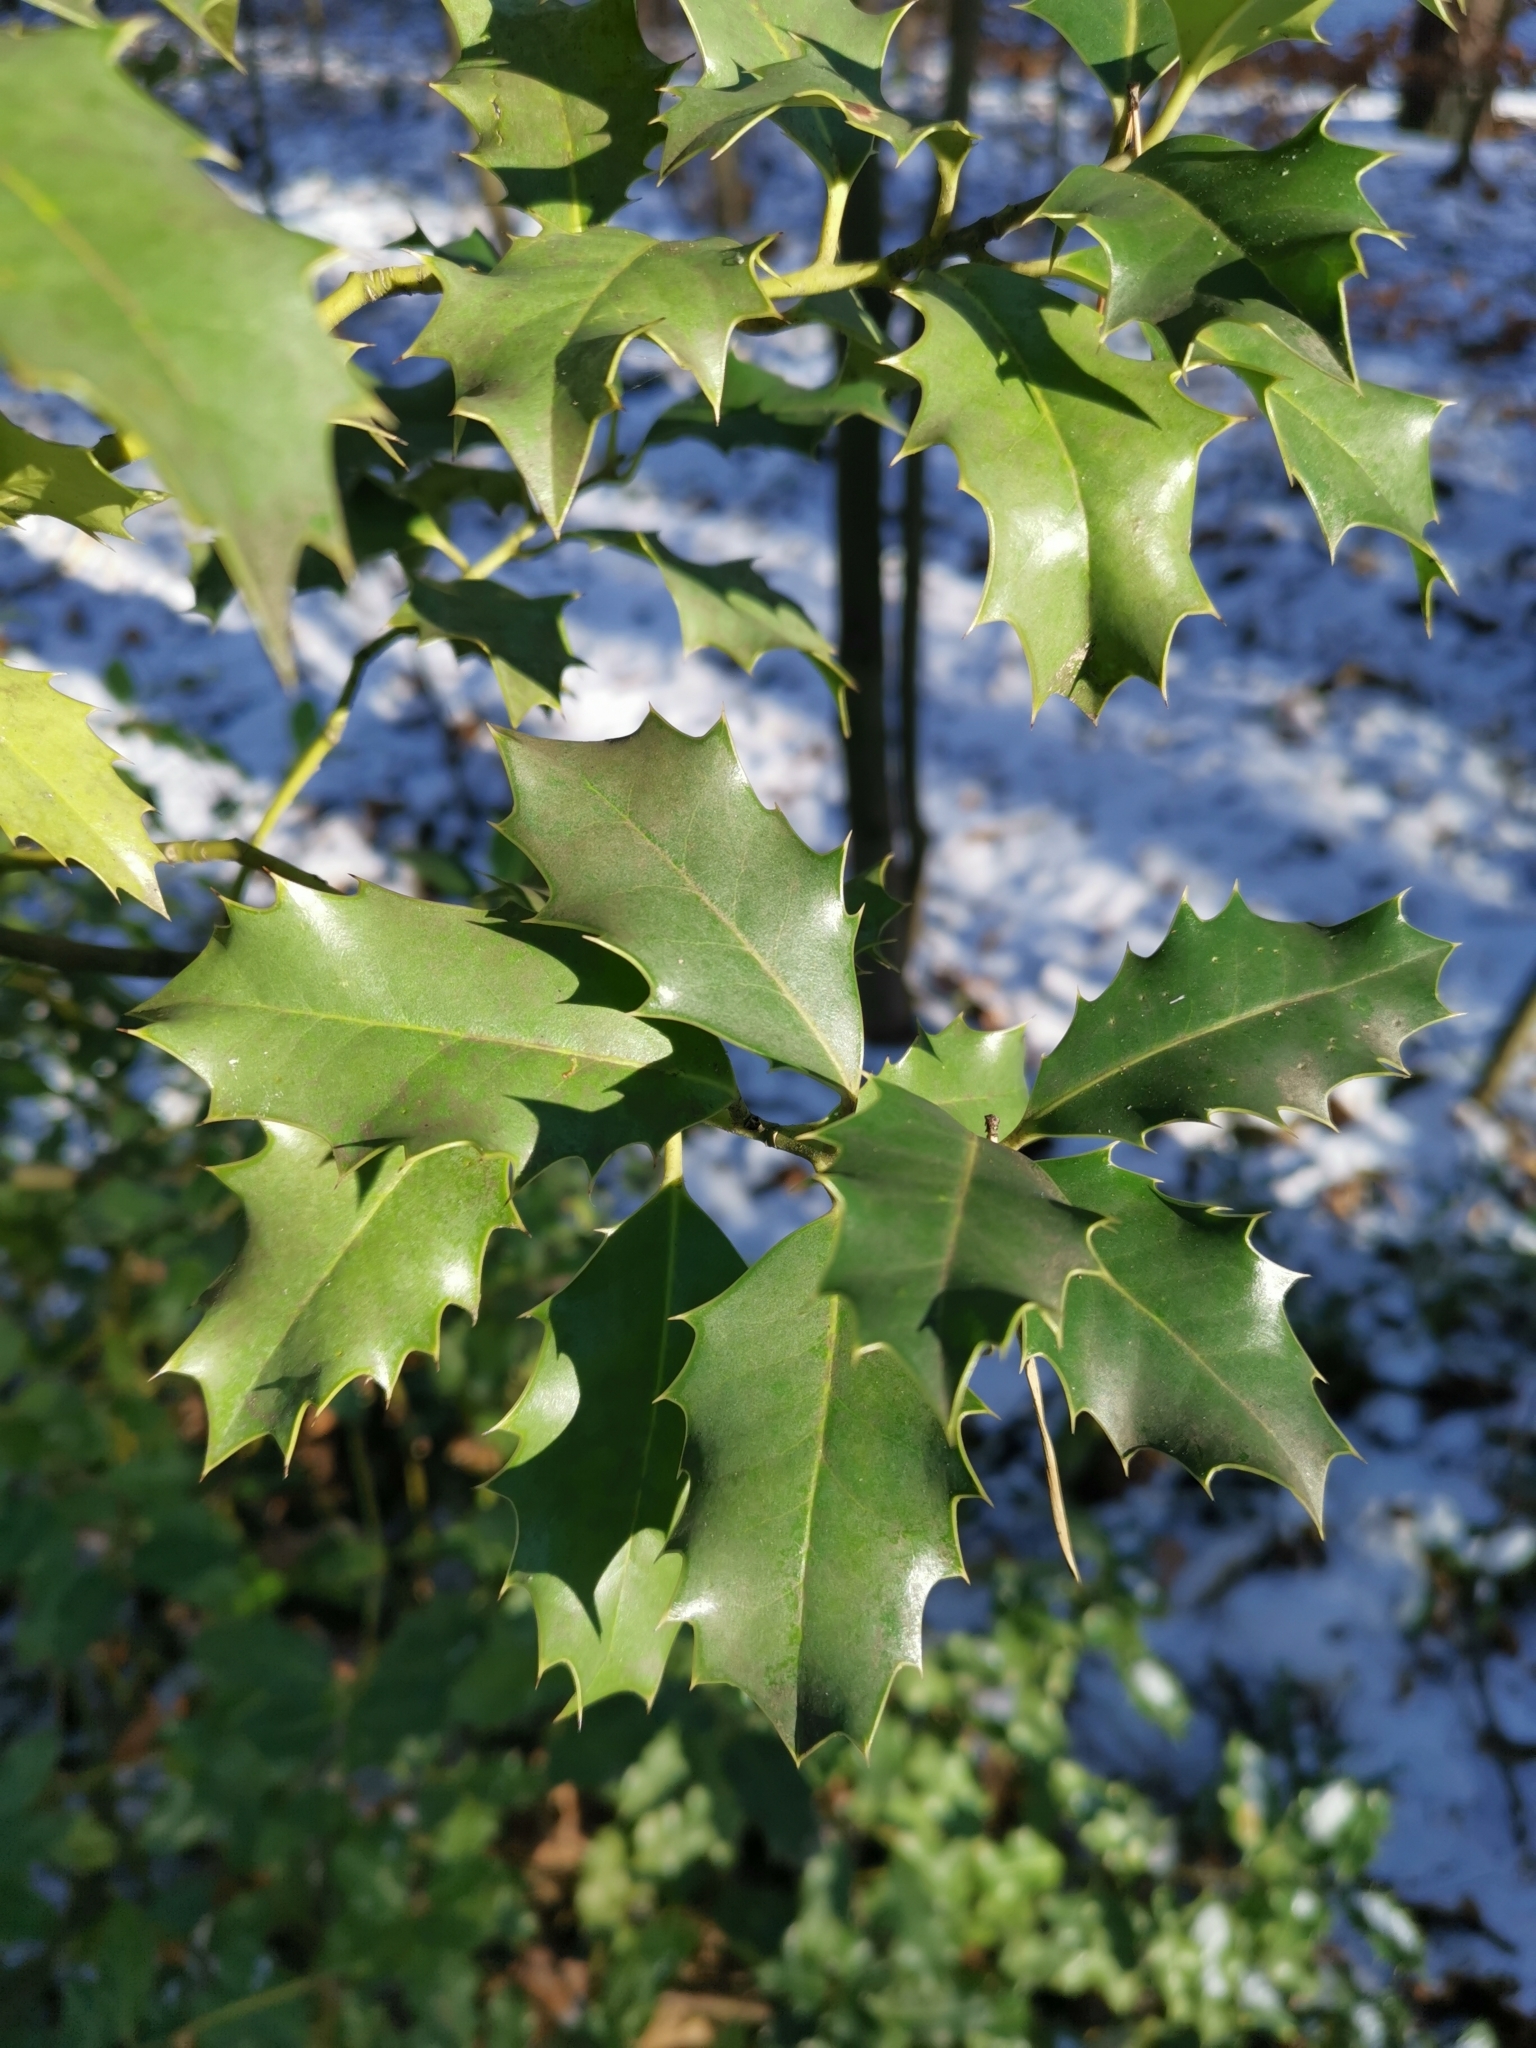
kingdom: Plantae
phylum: Tracheophyta
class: Magnoliopsida
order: Aquifoliales
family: Aquifoliaceae
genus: Ilex
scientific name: Ilex aquifolium
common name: English holly
